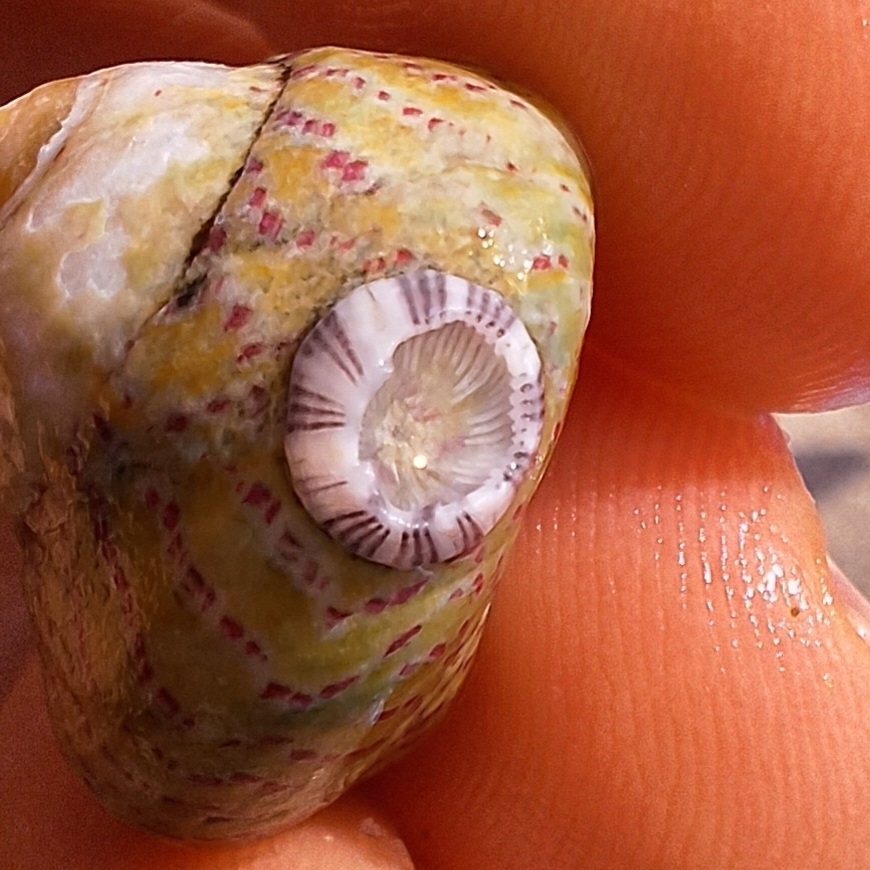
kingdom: Animalia
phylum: Arthropoda
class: Maxillopoda
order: Sessilia
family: Balanidae
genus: Amphibalanus
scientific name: Amphibalanus amphitrite
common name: Striped acorn barnacle
